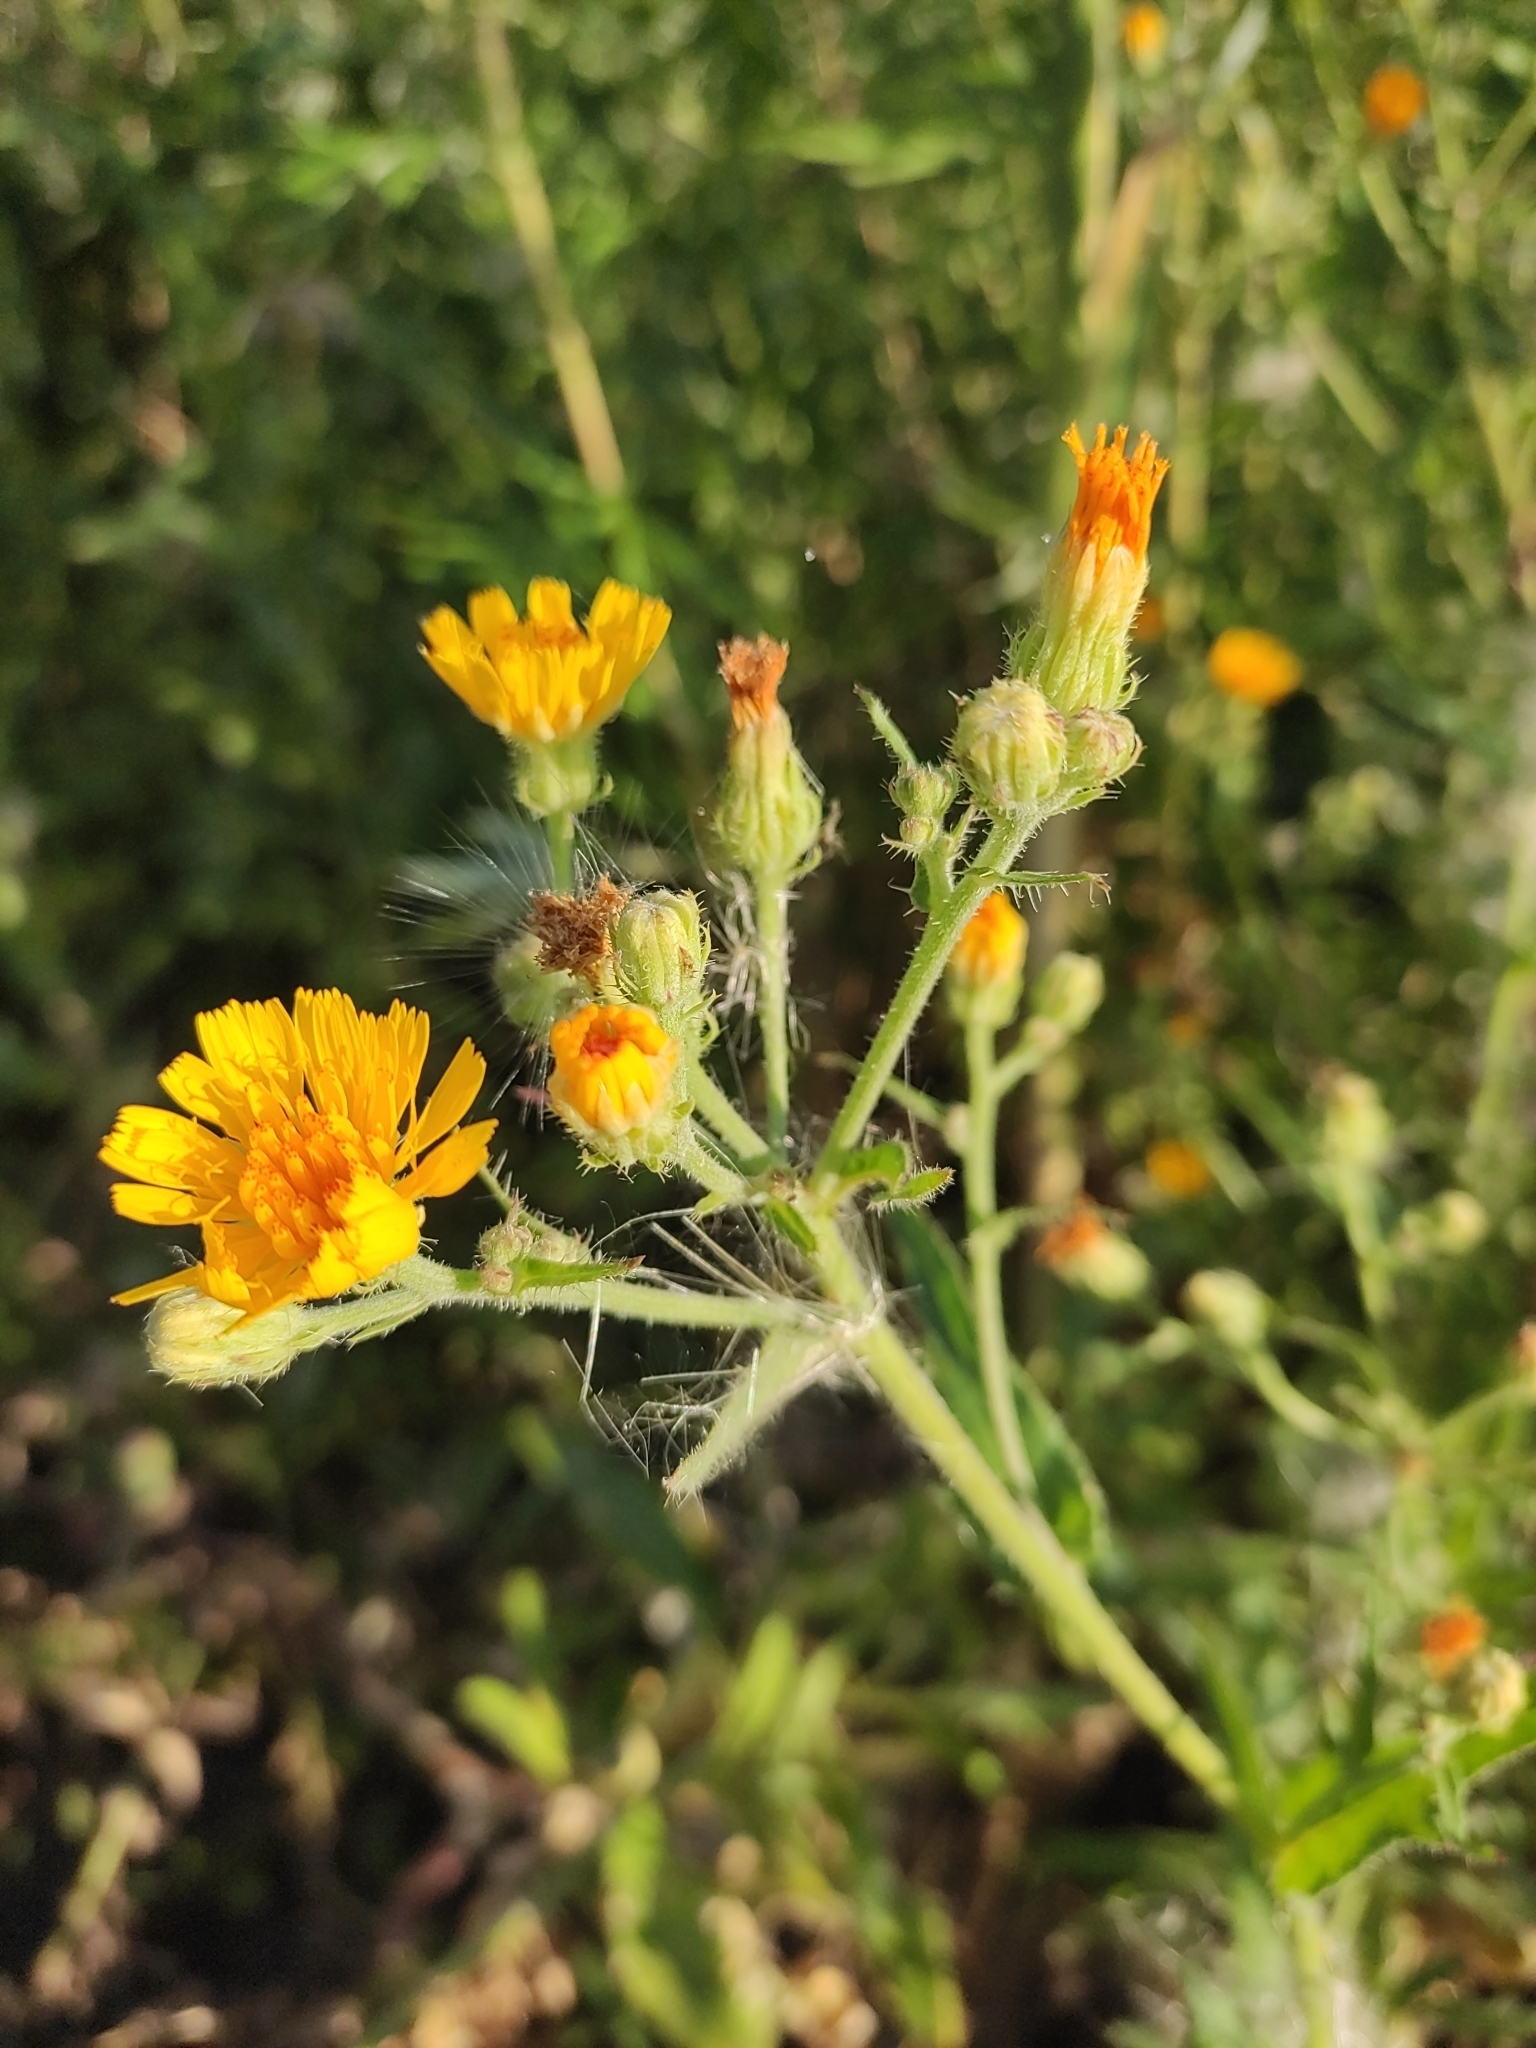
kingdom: Plantae
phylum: Tracheophyta
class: Magnoliopsida
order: Asterales
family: Asteraceae
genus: Picris
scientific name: Picris hieracioides
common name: Hawkweed oxtongue
